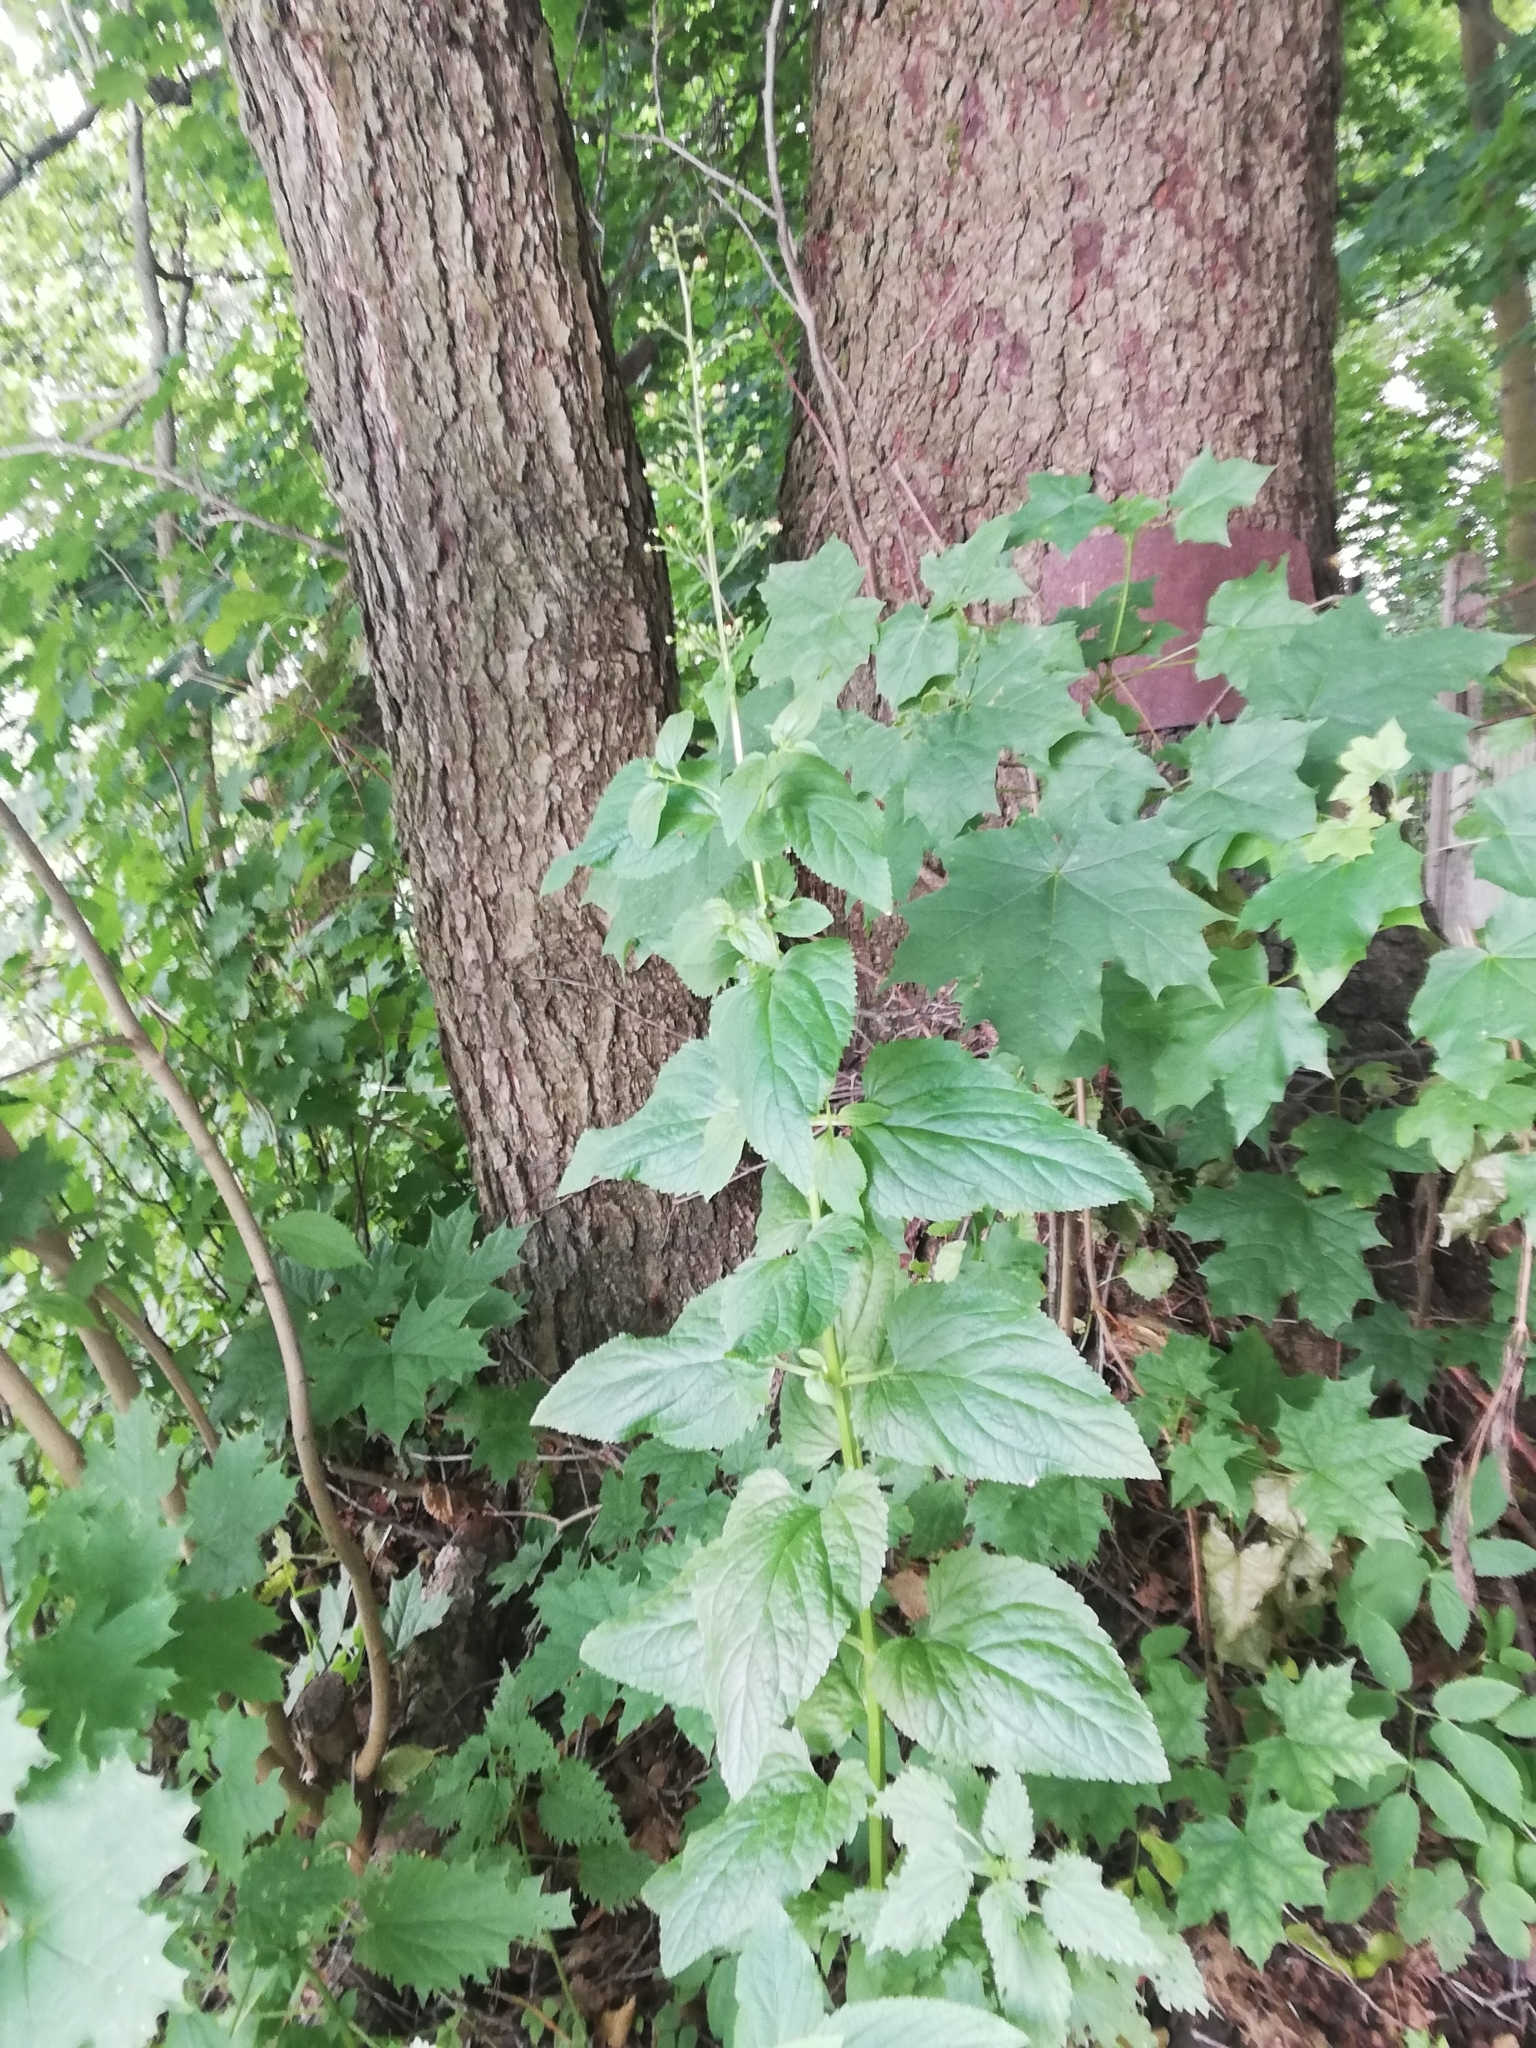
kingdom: Plantae
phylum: Tracheophyta
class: Magnoliopsida
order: Lamiales
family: Scrophulariaceae
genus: Scrophularia
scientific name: Scrophularia nodosa
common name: Common figwort
